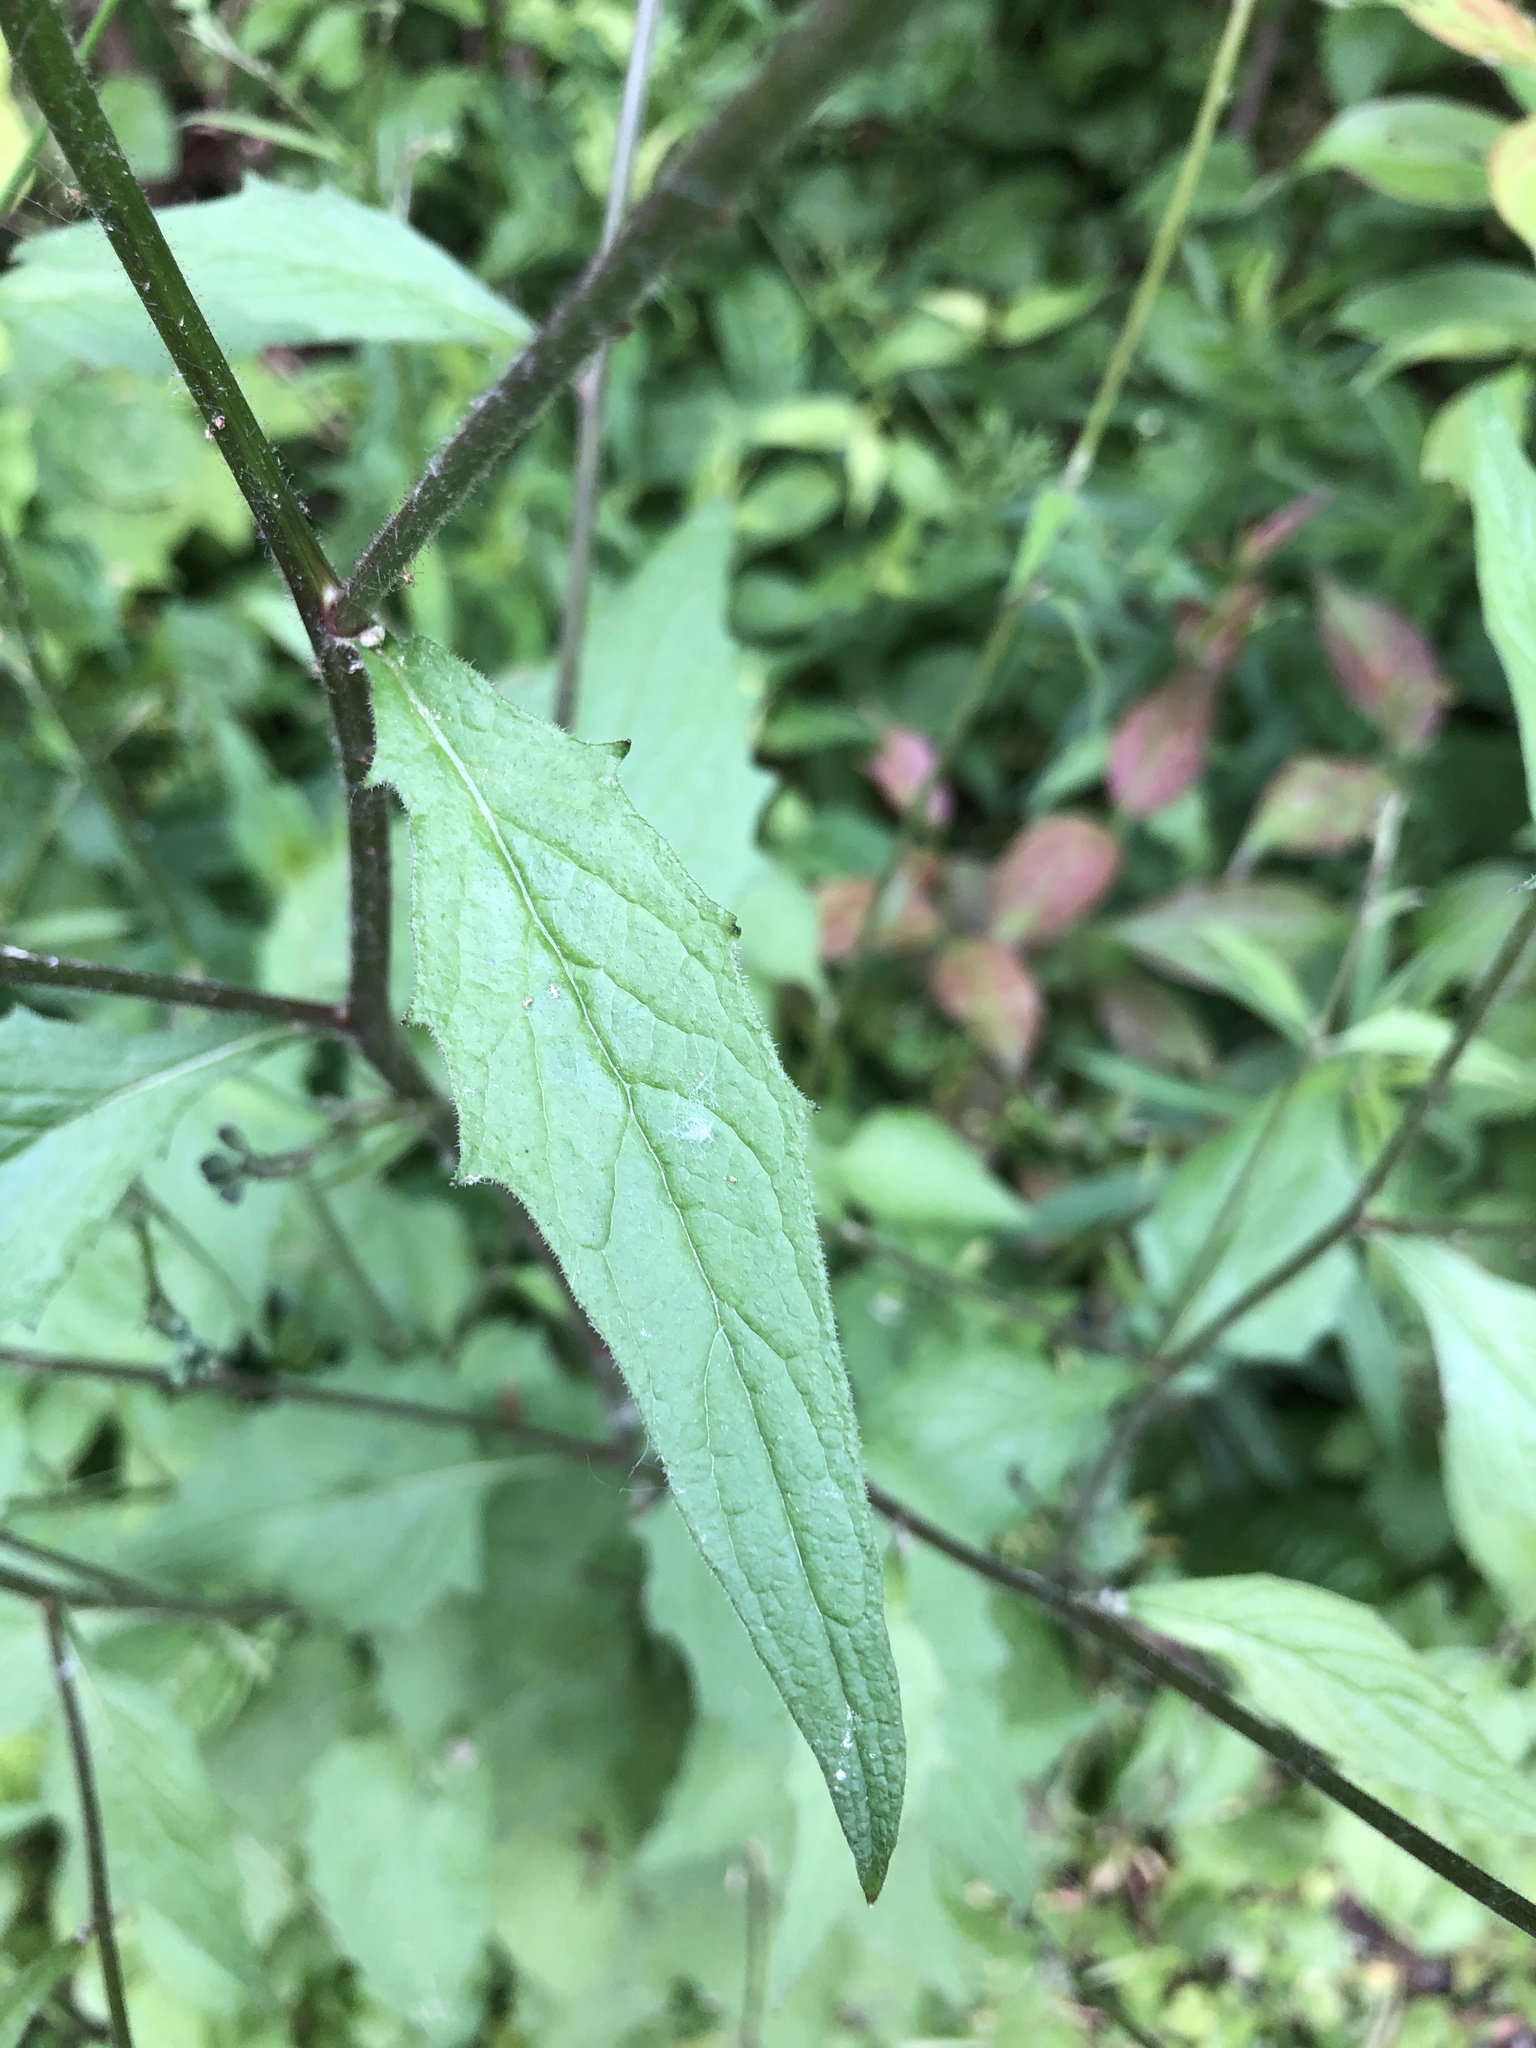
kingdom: Plantae
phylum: Tracheophyta
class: Magnoliopsida
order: Asterales
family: Asteraceae
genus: Lapsana
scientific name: Lapsana communis
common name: Nipplewort
